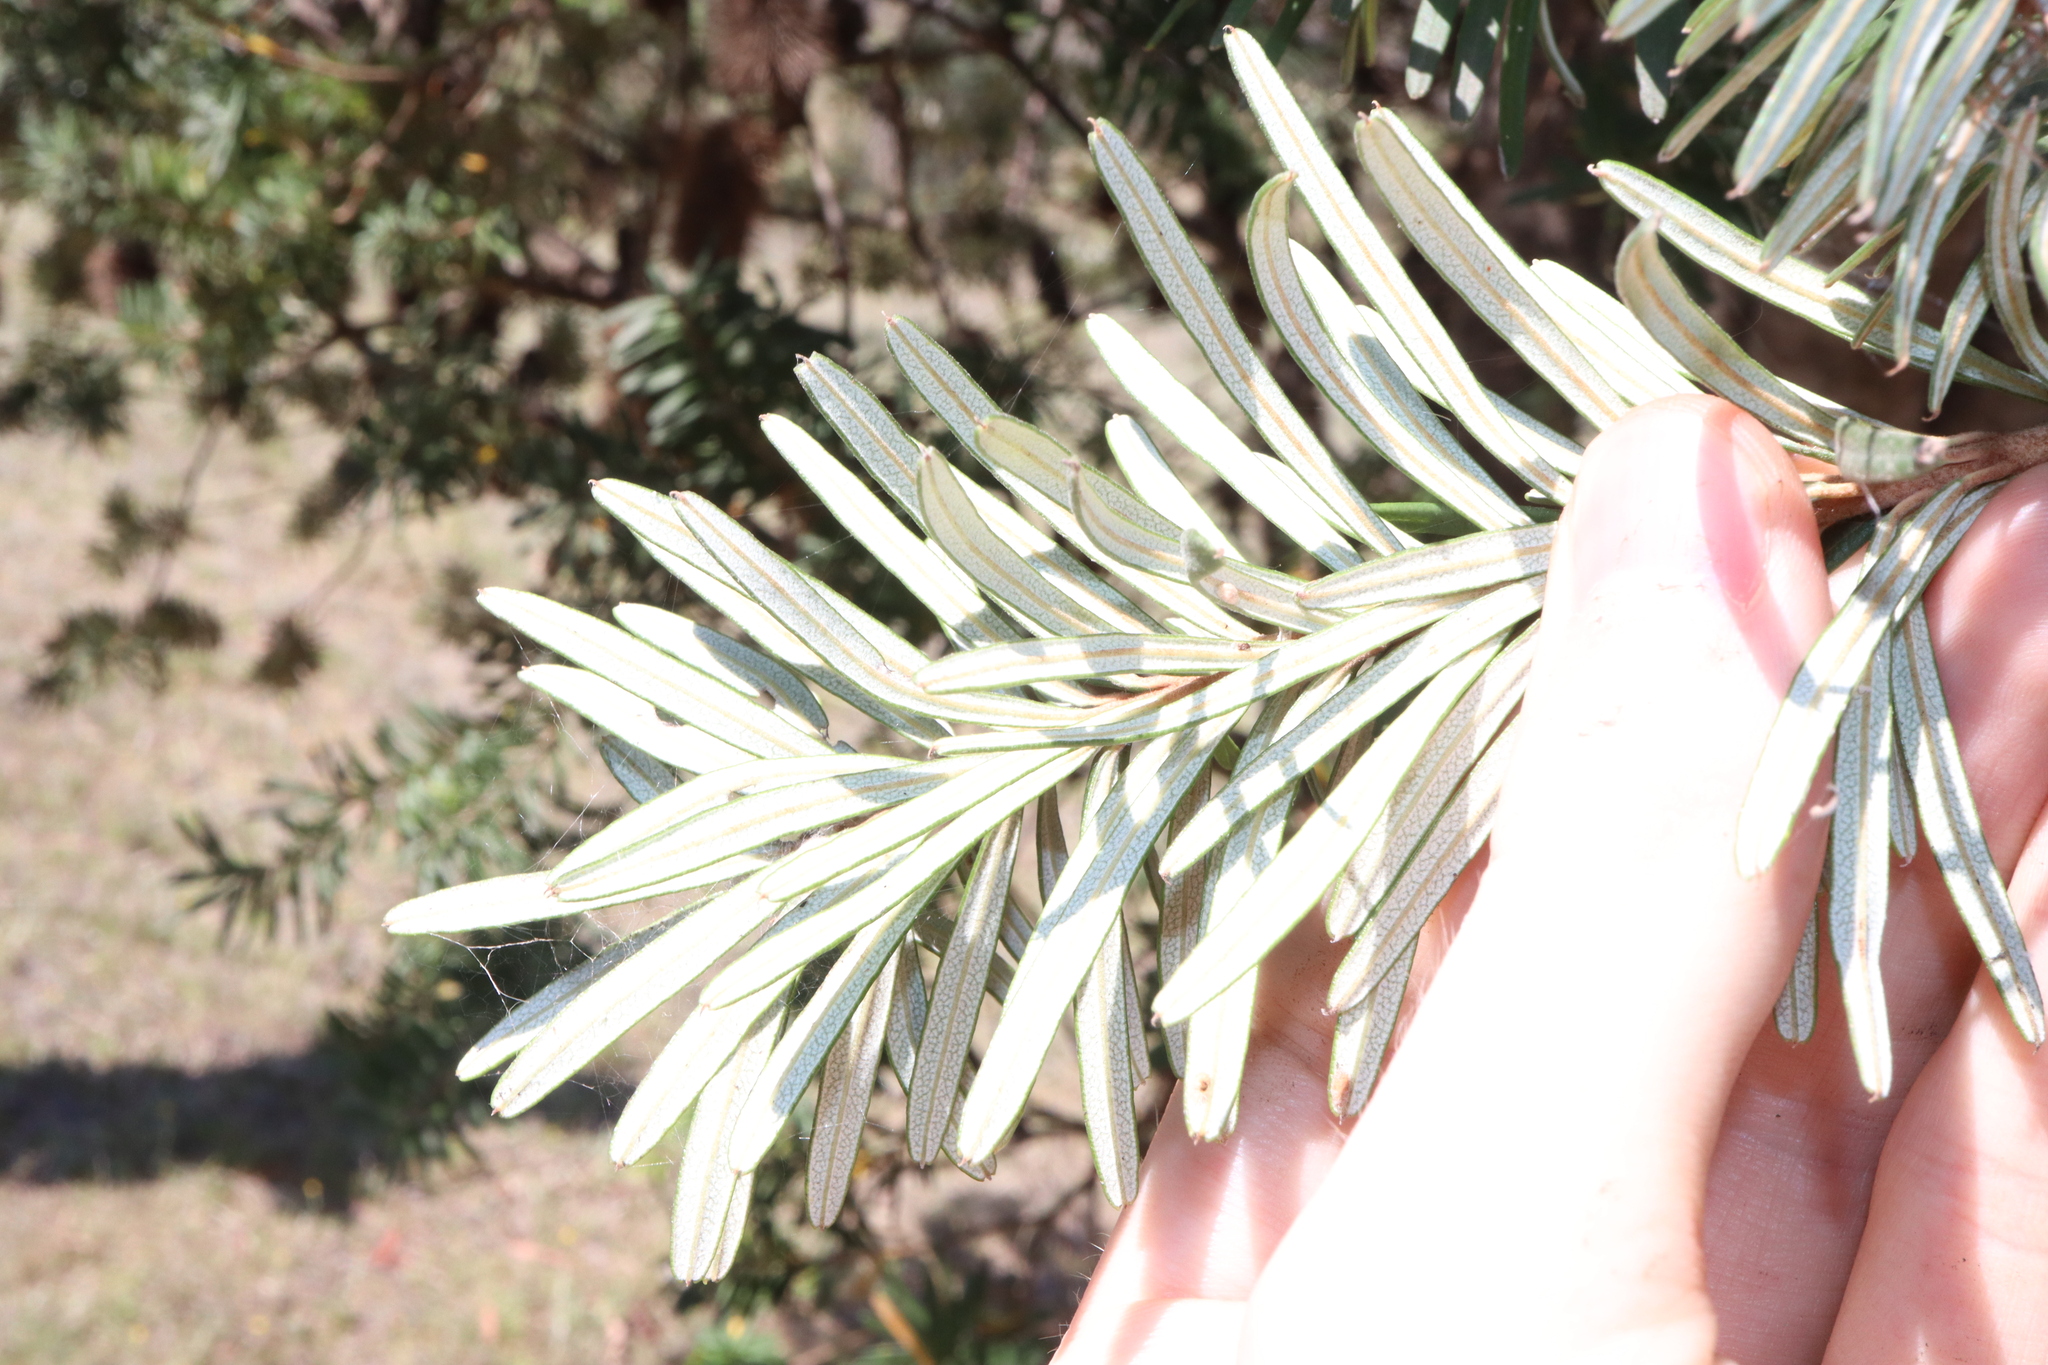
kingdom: Plantae
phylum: Tracheophyta
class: Magnoliopsida
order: Proteales
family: Proteaceae
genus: Banksia
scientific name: Banksia marginata
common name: Silver banksia
